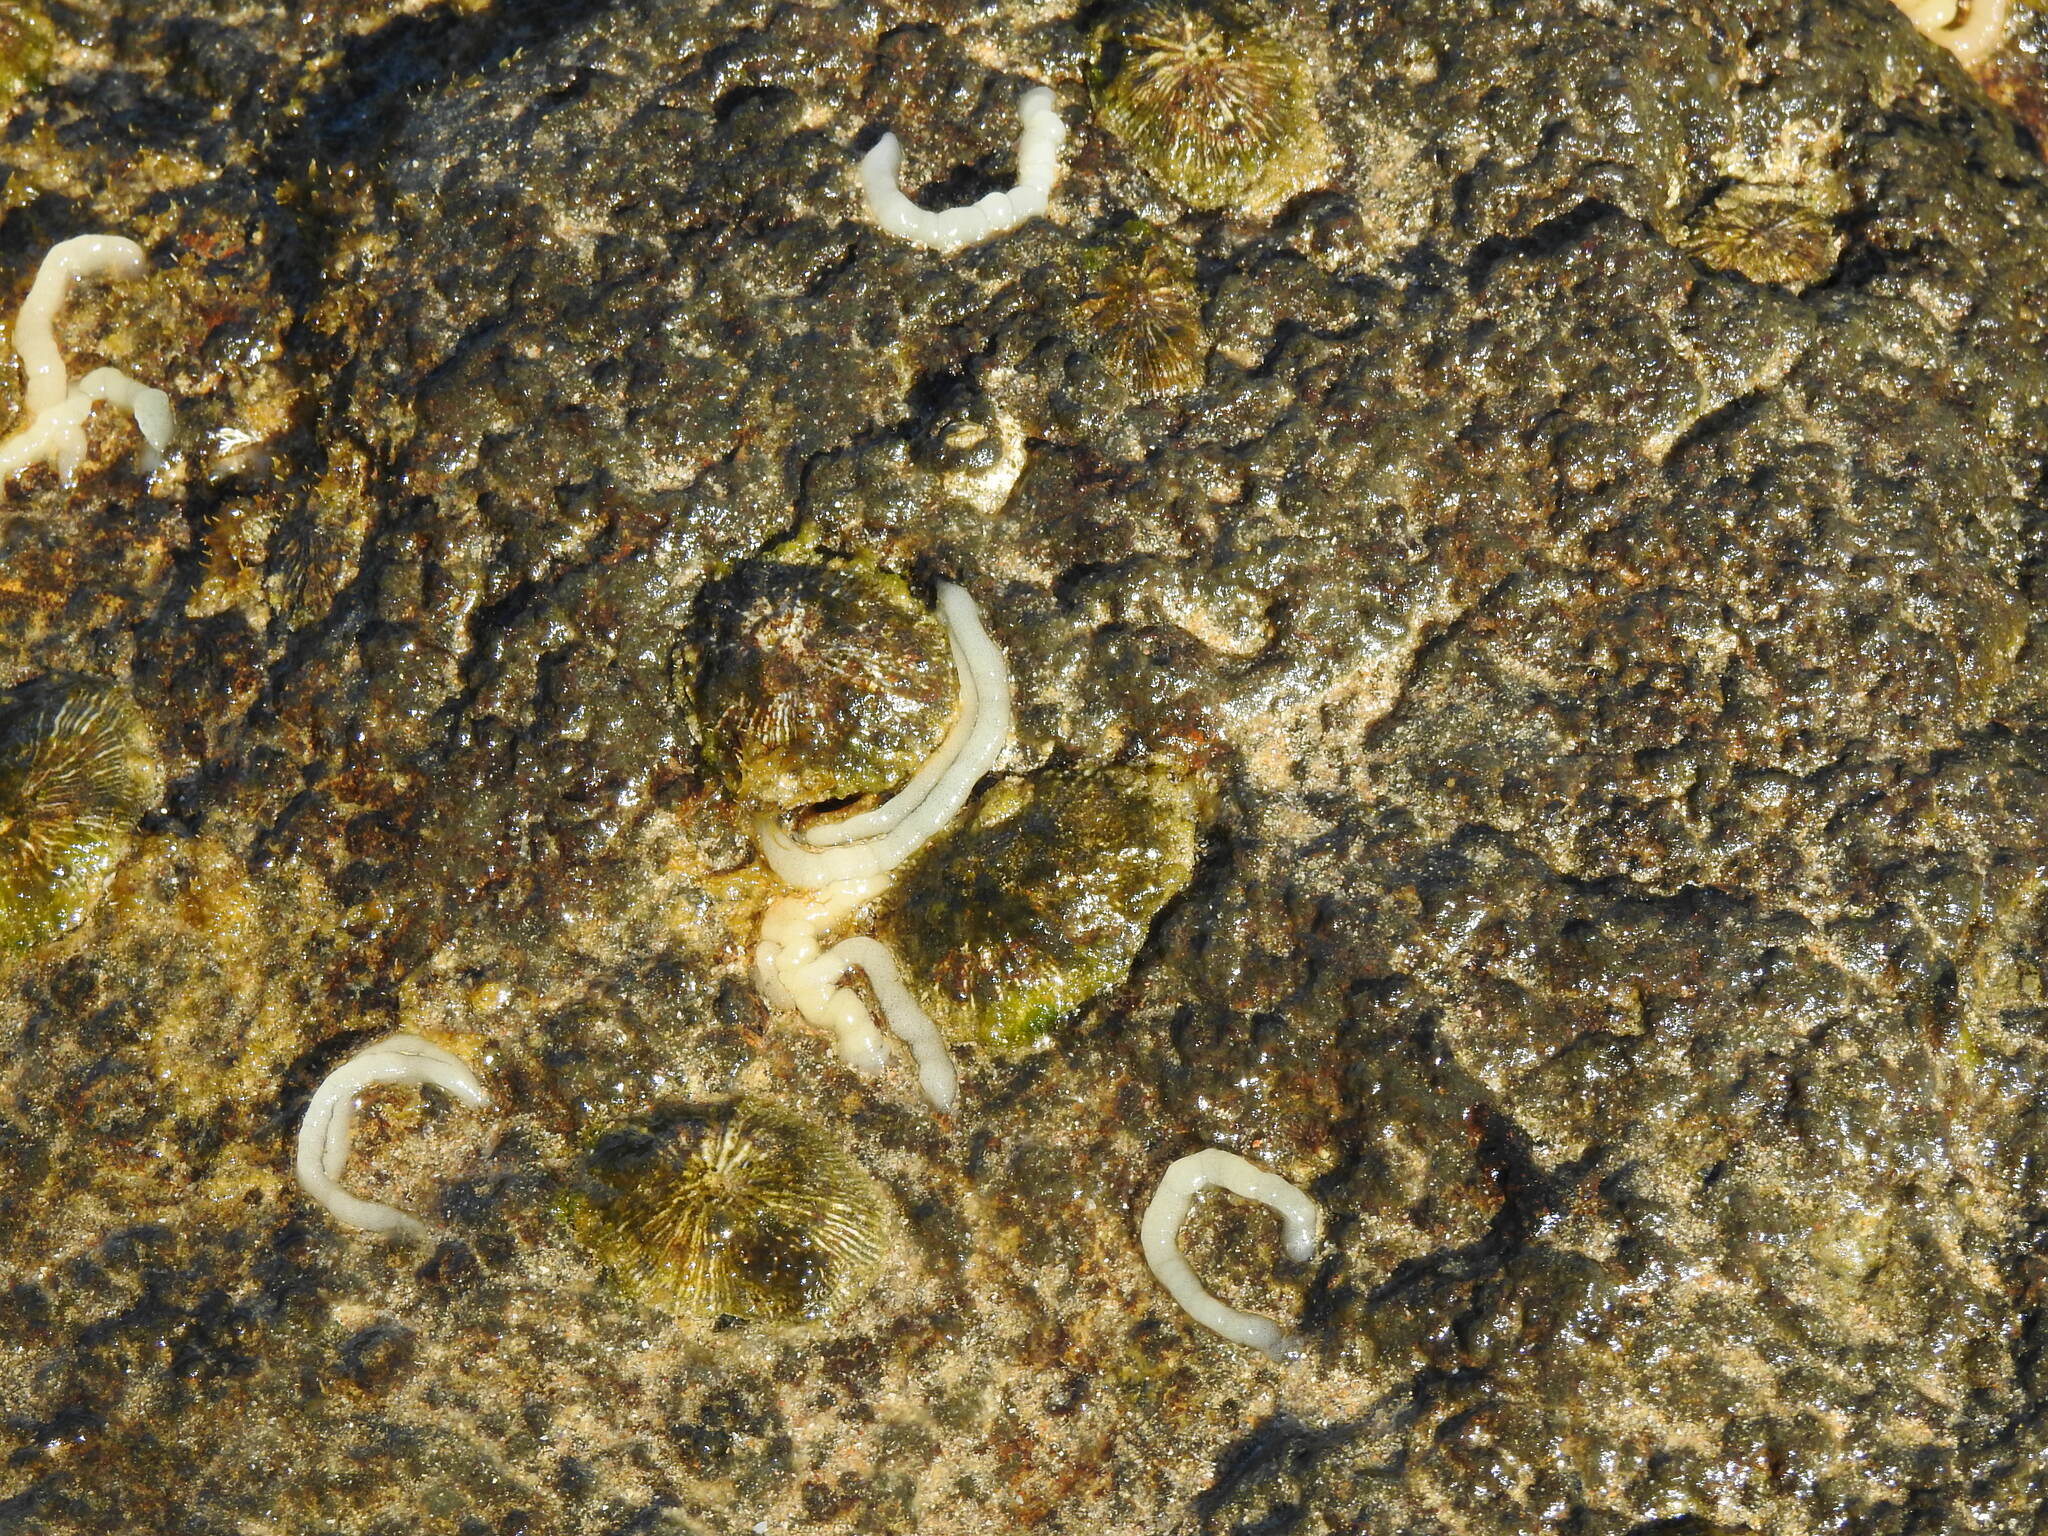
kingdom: Animalia
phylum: Mollusca
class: Gastropoda
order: Siphonariida
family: Siphonariidae
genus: Siphonaria
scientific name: Siphonaria pectinata
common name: Striped false limpet
